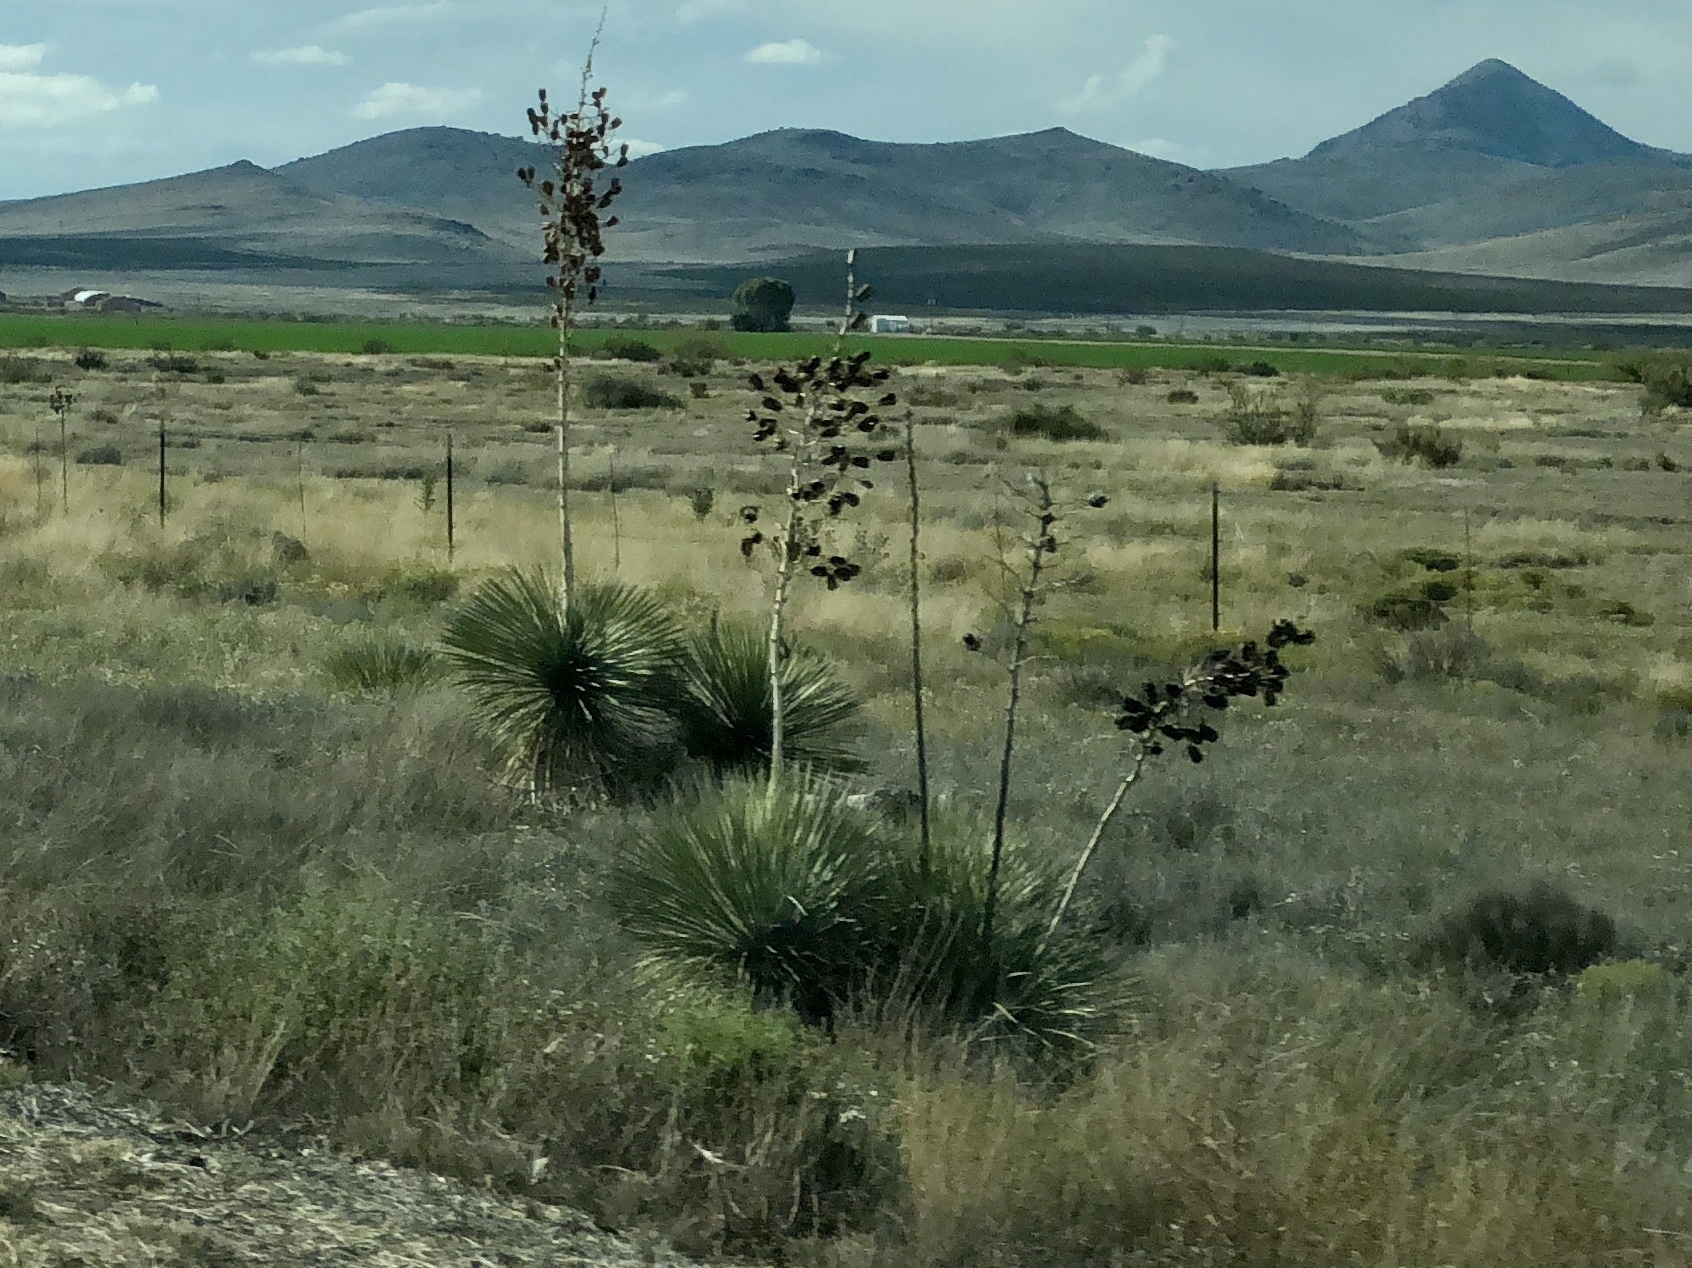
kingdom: Plantae
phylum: Tracheophyta
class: Liliopsida
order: Asparagales
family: Asparagaceae
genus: Yucca
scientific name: Yucca elata
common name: Palmella
